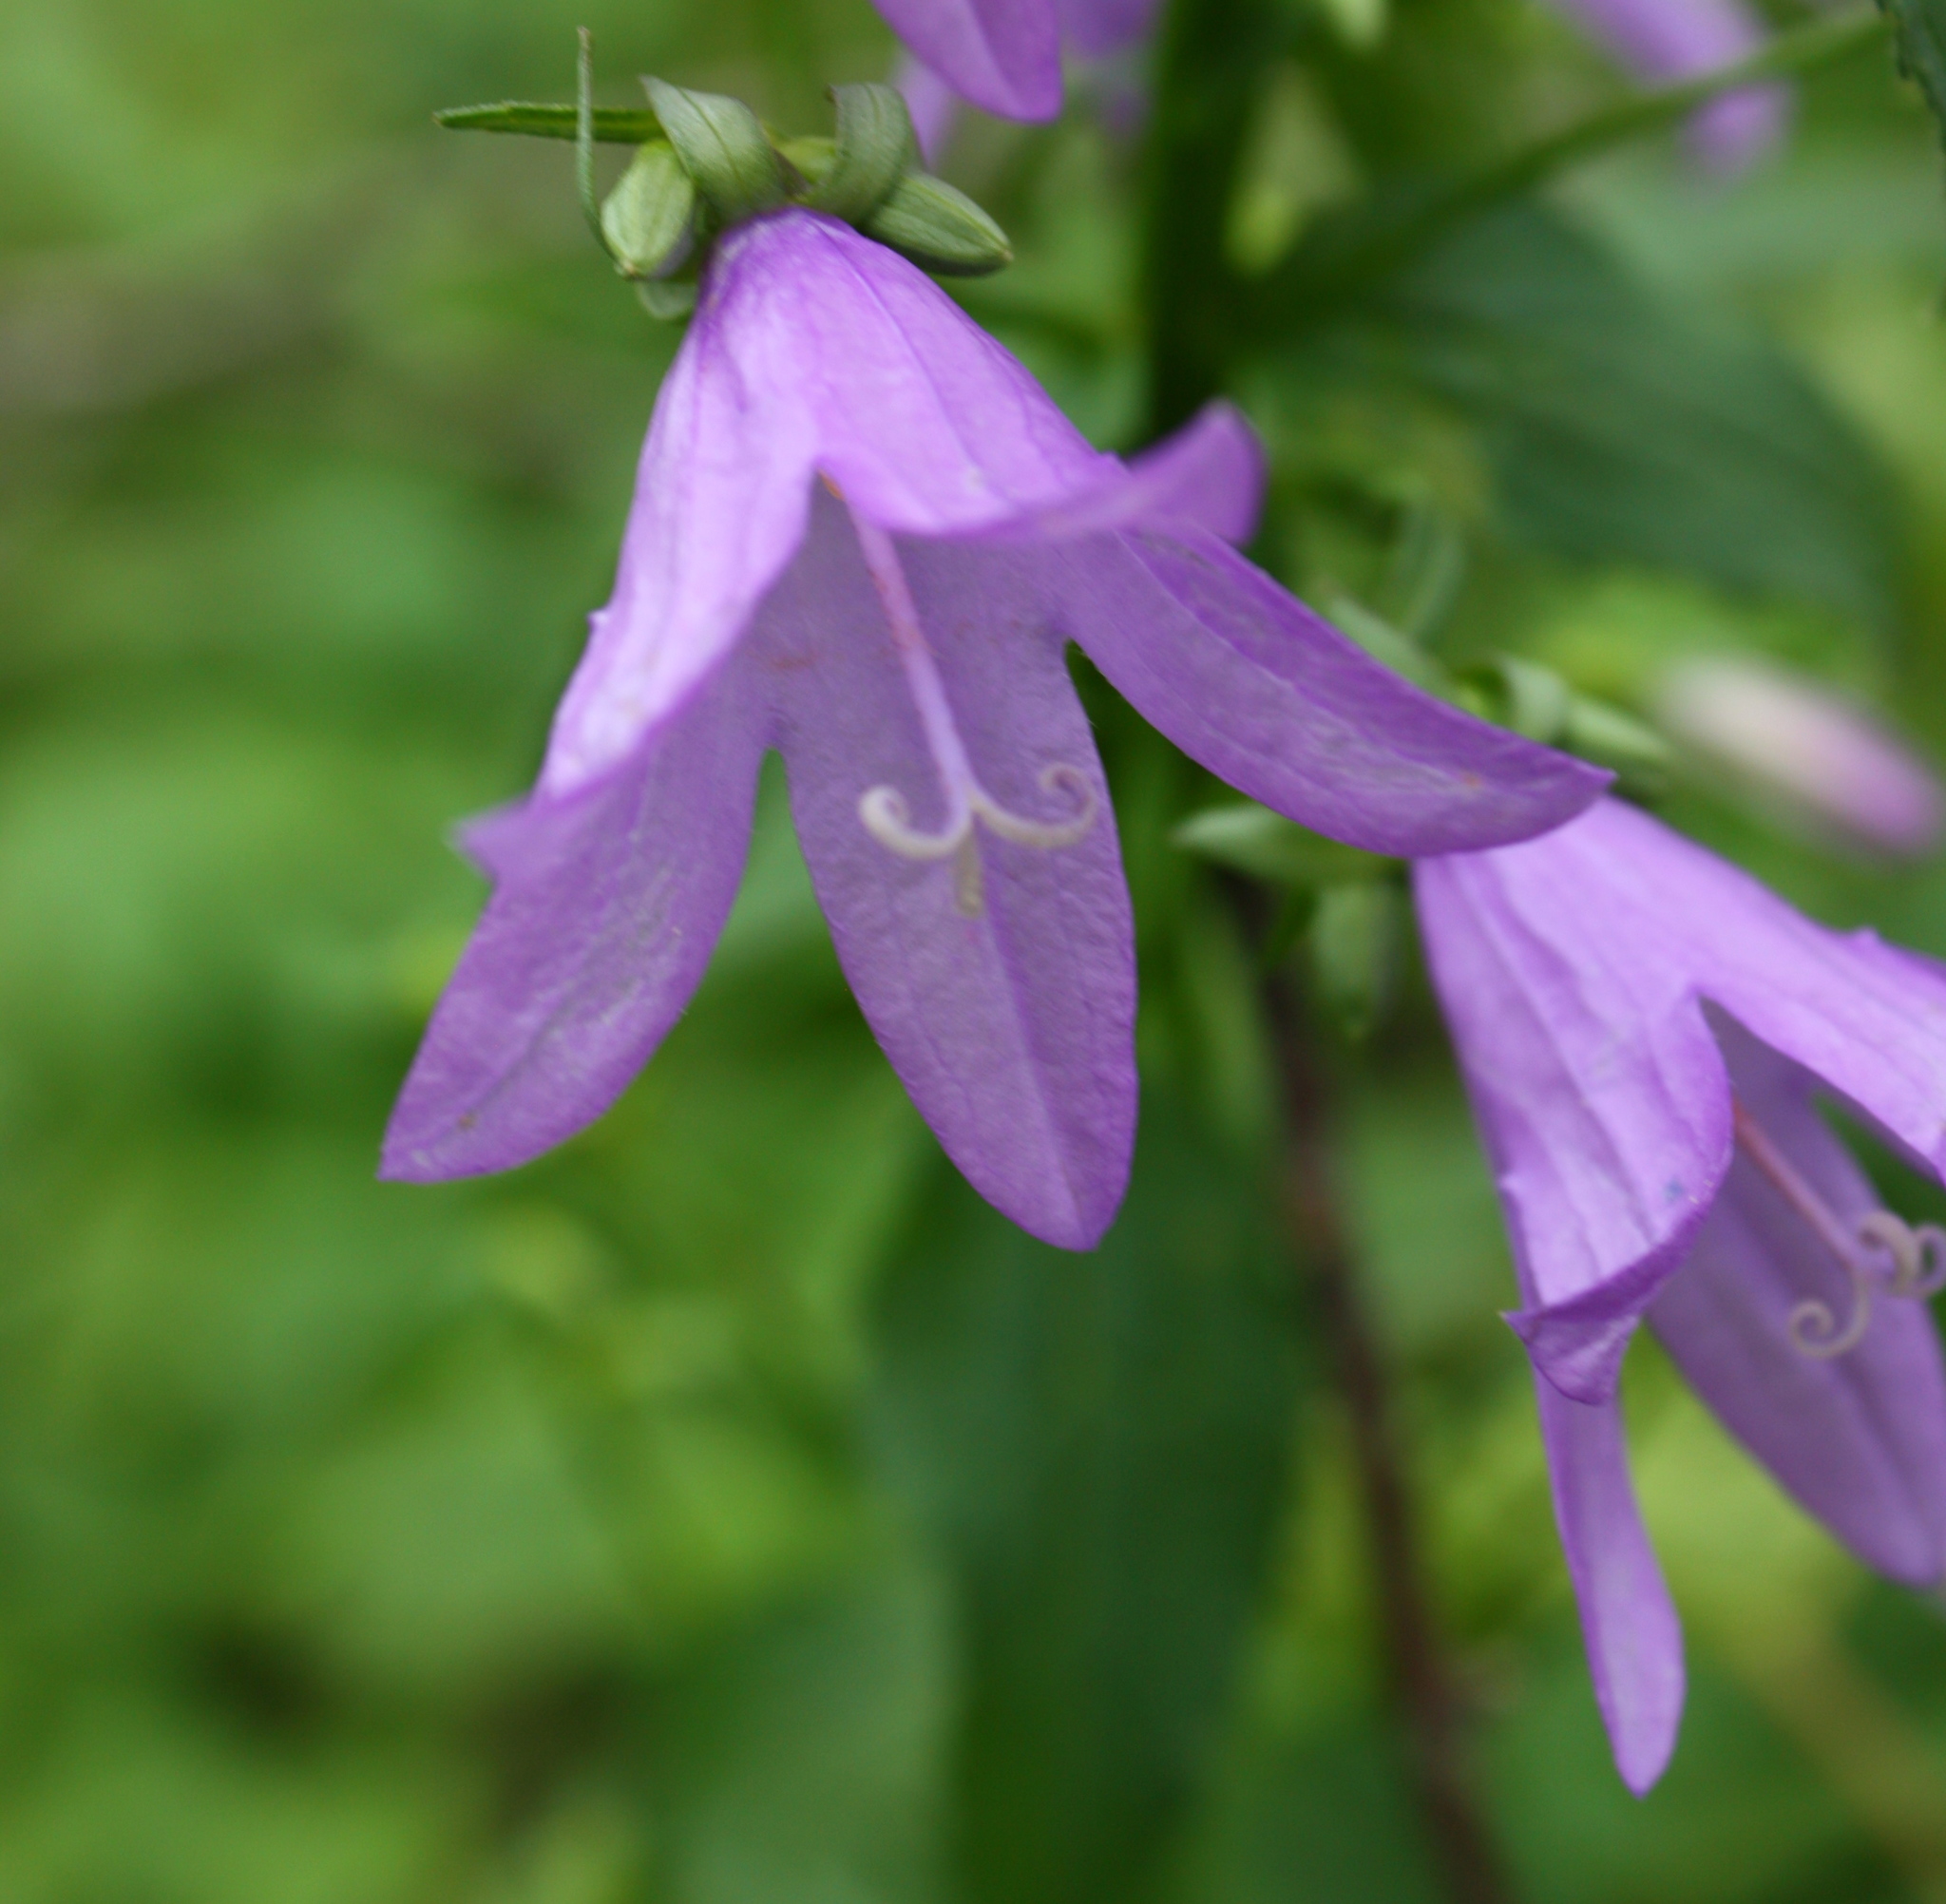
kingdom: Plantae
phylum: Tracheophyta
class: Magnoliopsida
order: Asterales
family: Campanulaceae
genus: Campanula
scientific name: Campanula rapunculoides
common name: Creeping bellflower
